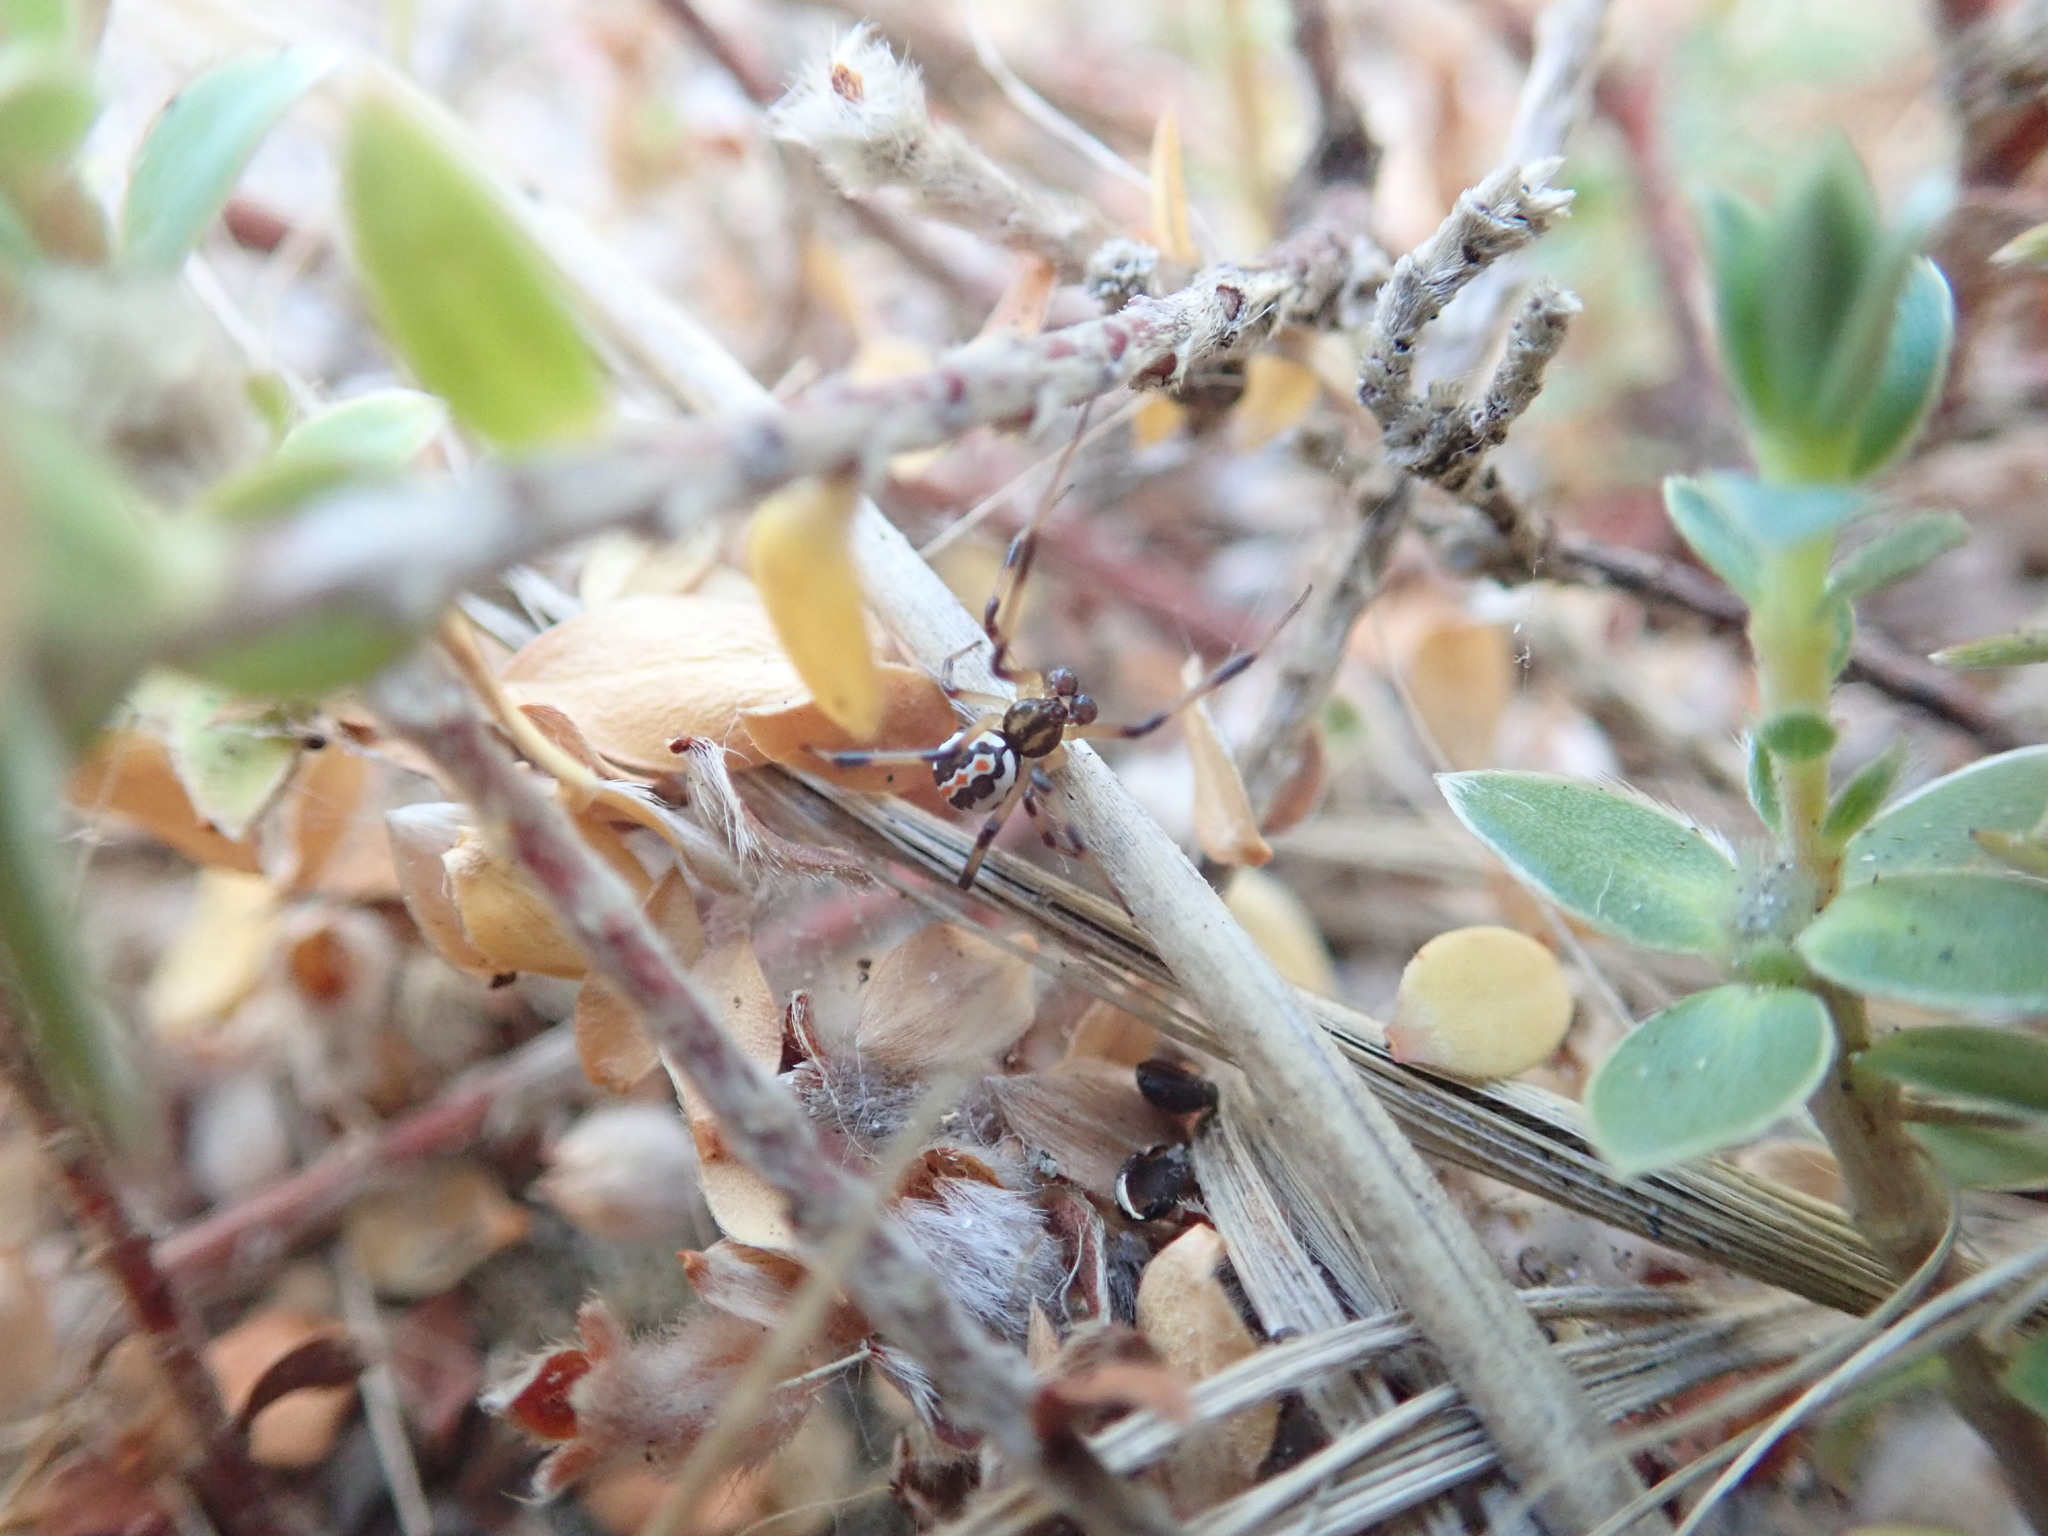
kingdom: Animalia
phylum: Arthropoda
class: Arachnida
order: Araneae
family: Theridiidae
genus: Latrodectus
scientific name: Latrodectus katipo
